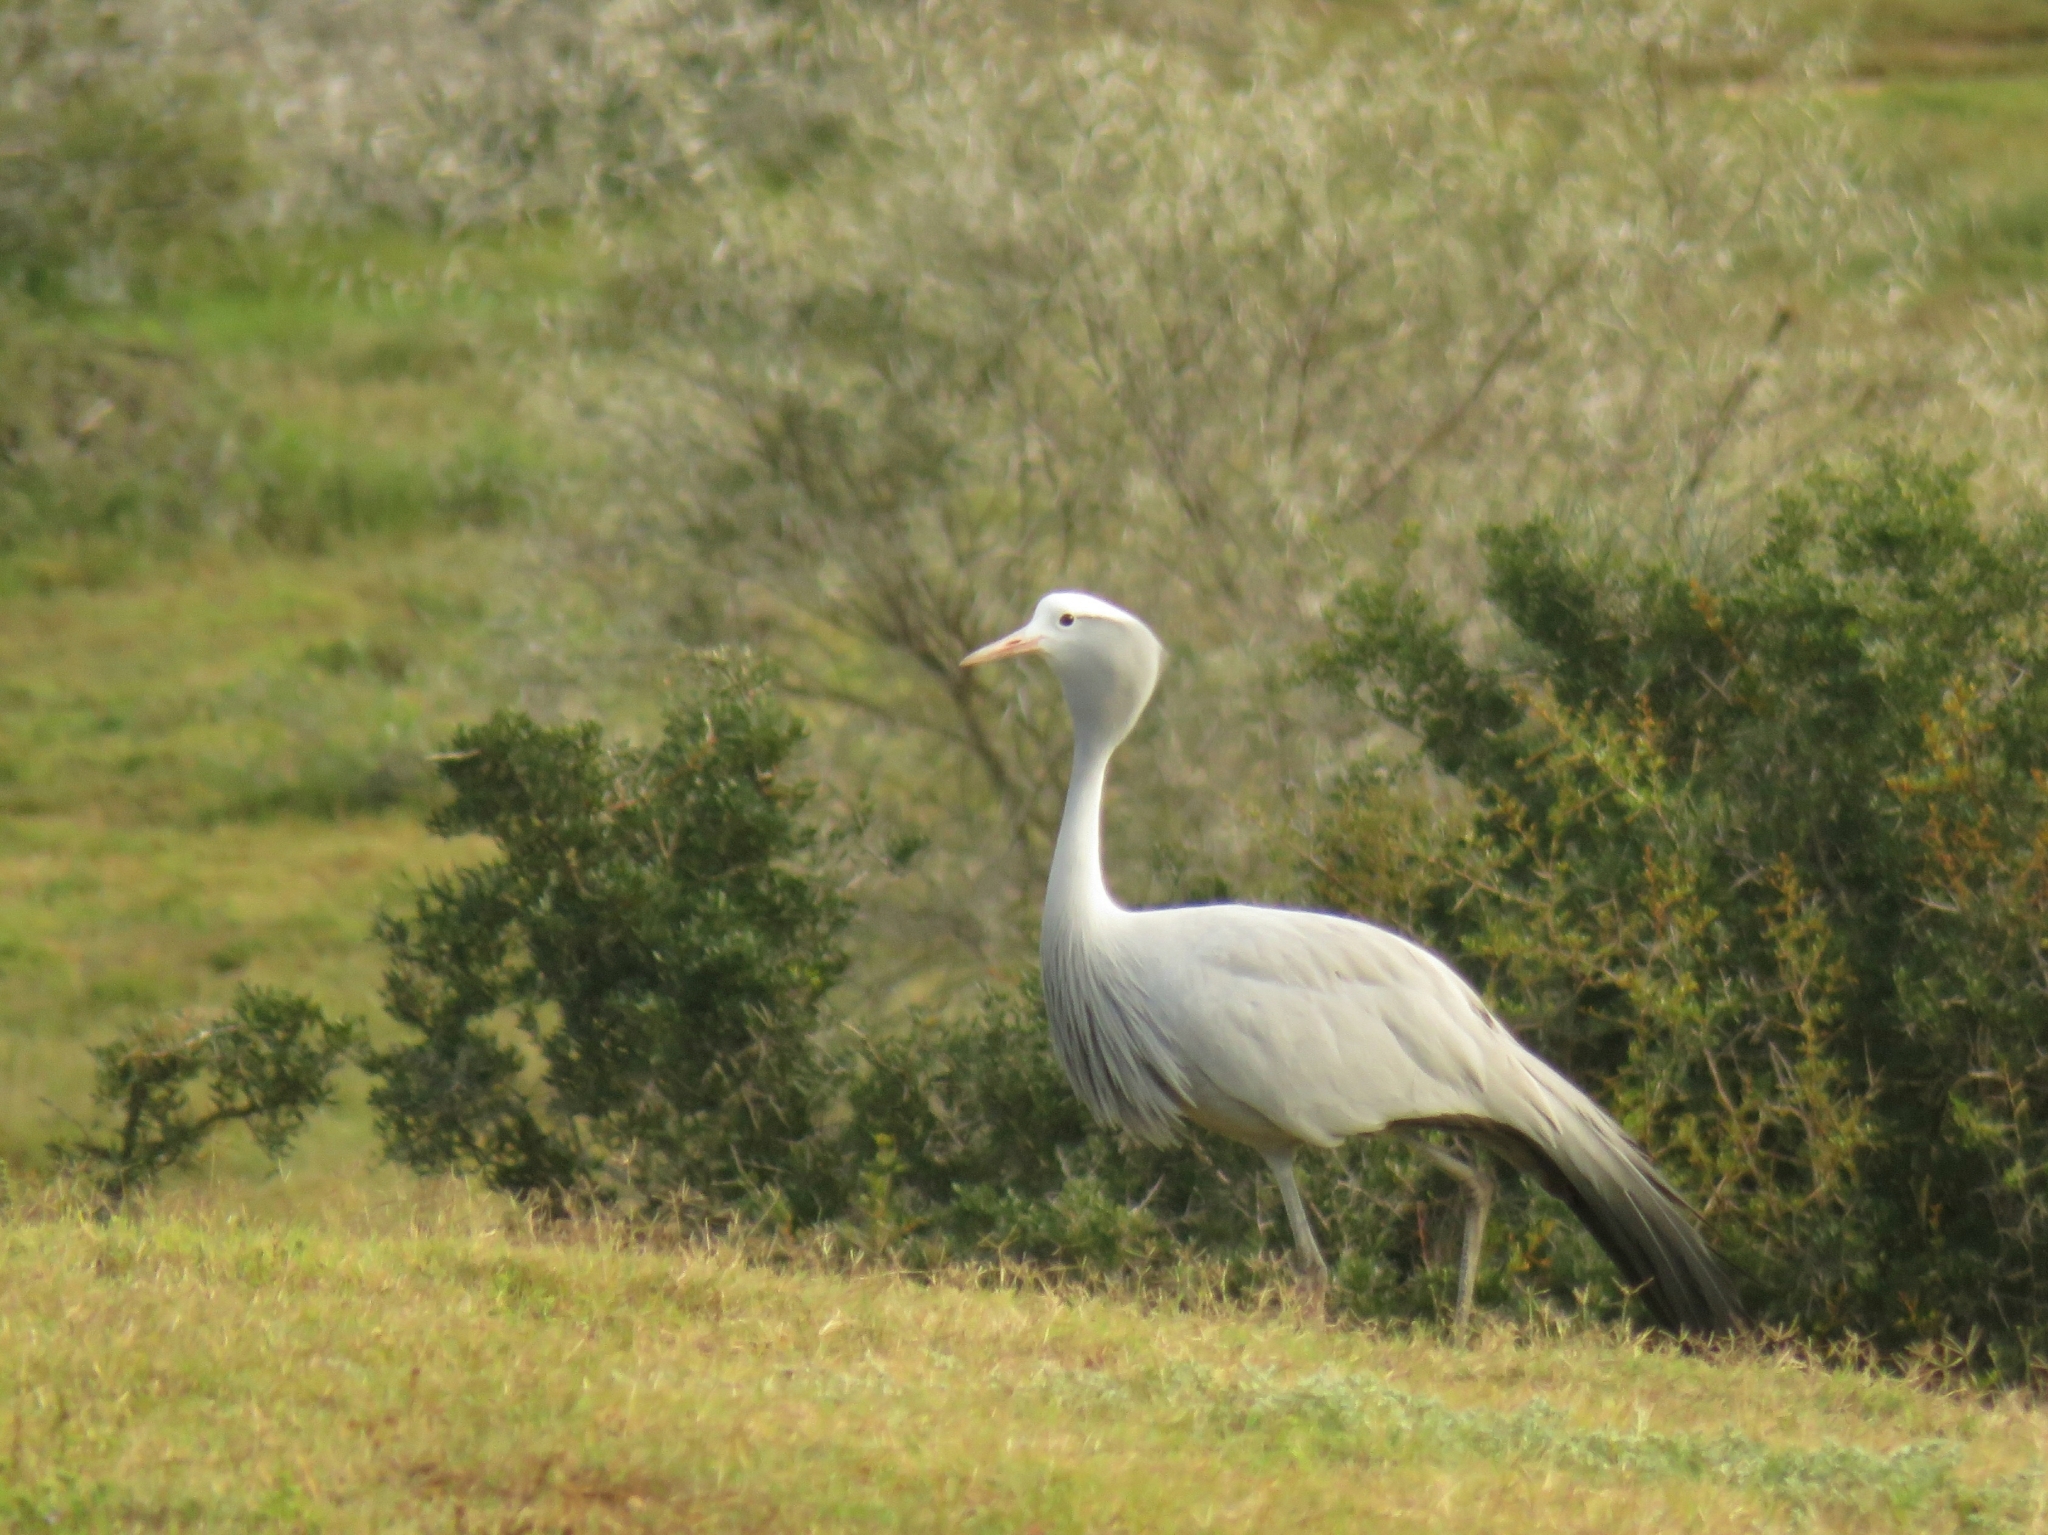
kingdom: Animalia
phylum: Chordata
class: Aves
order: Gruiformes
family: Gruidae
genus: Anthropoides
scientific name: Anthropoides paradiseus
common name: Blue crane
